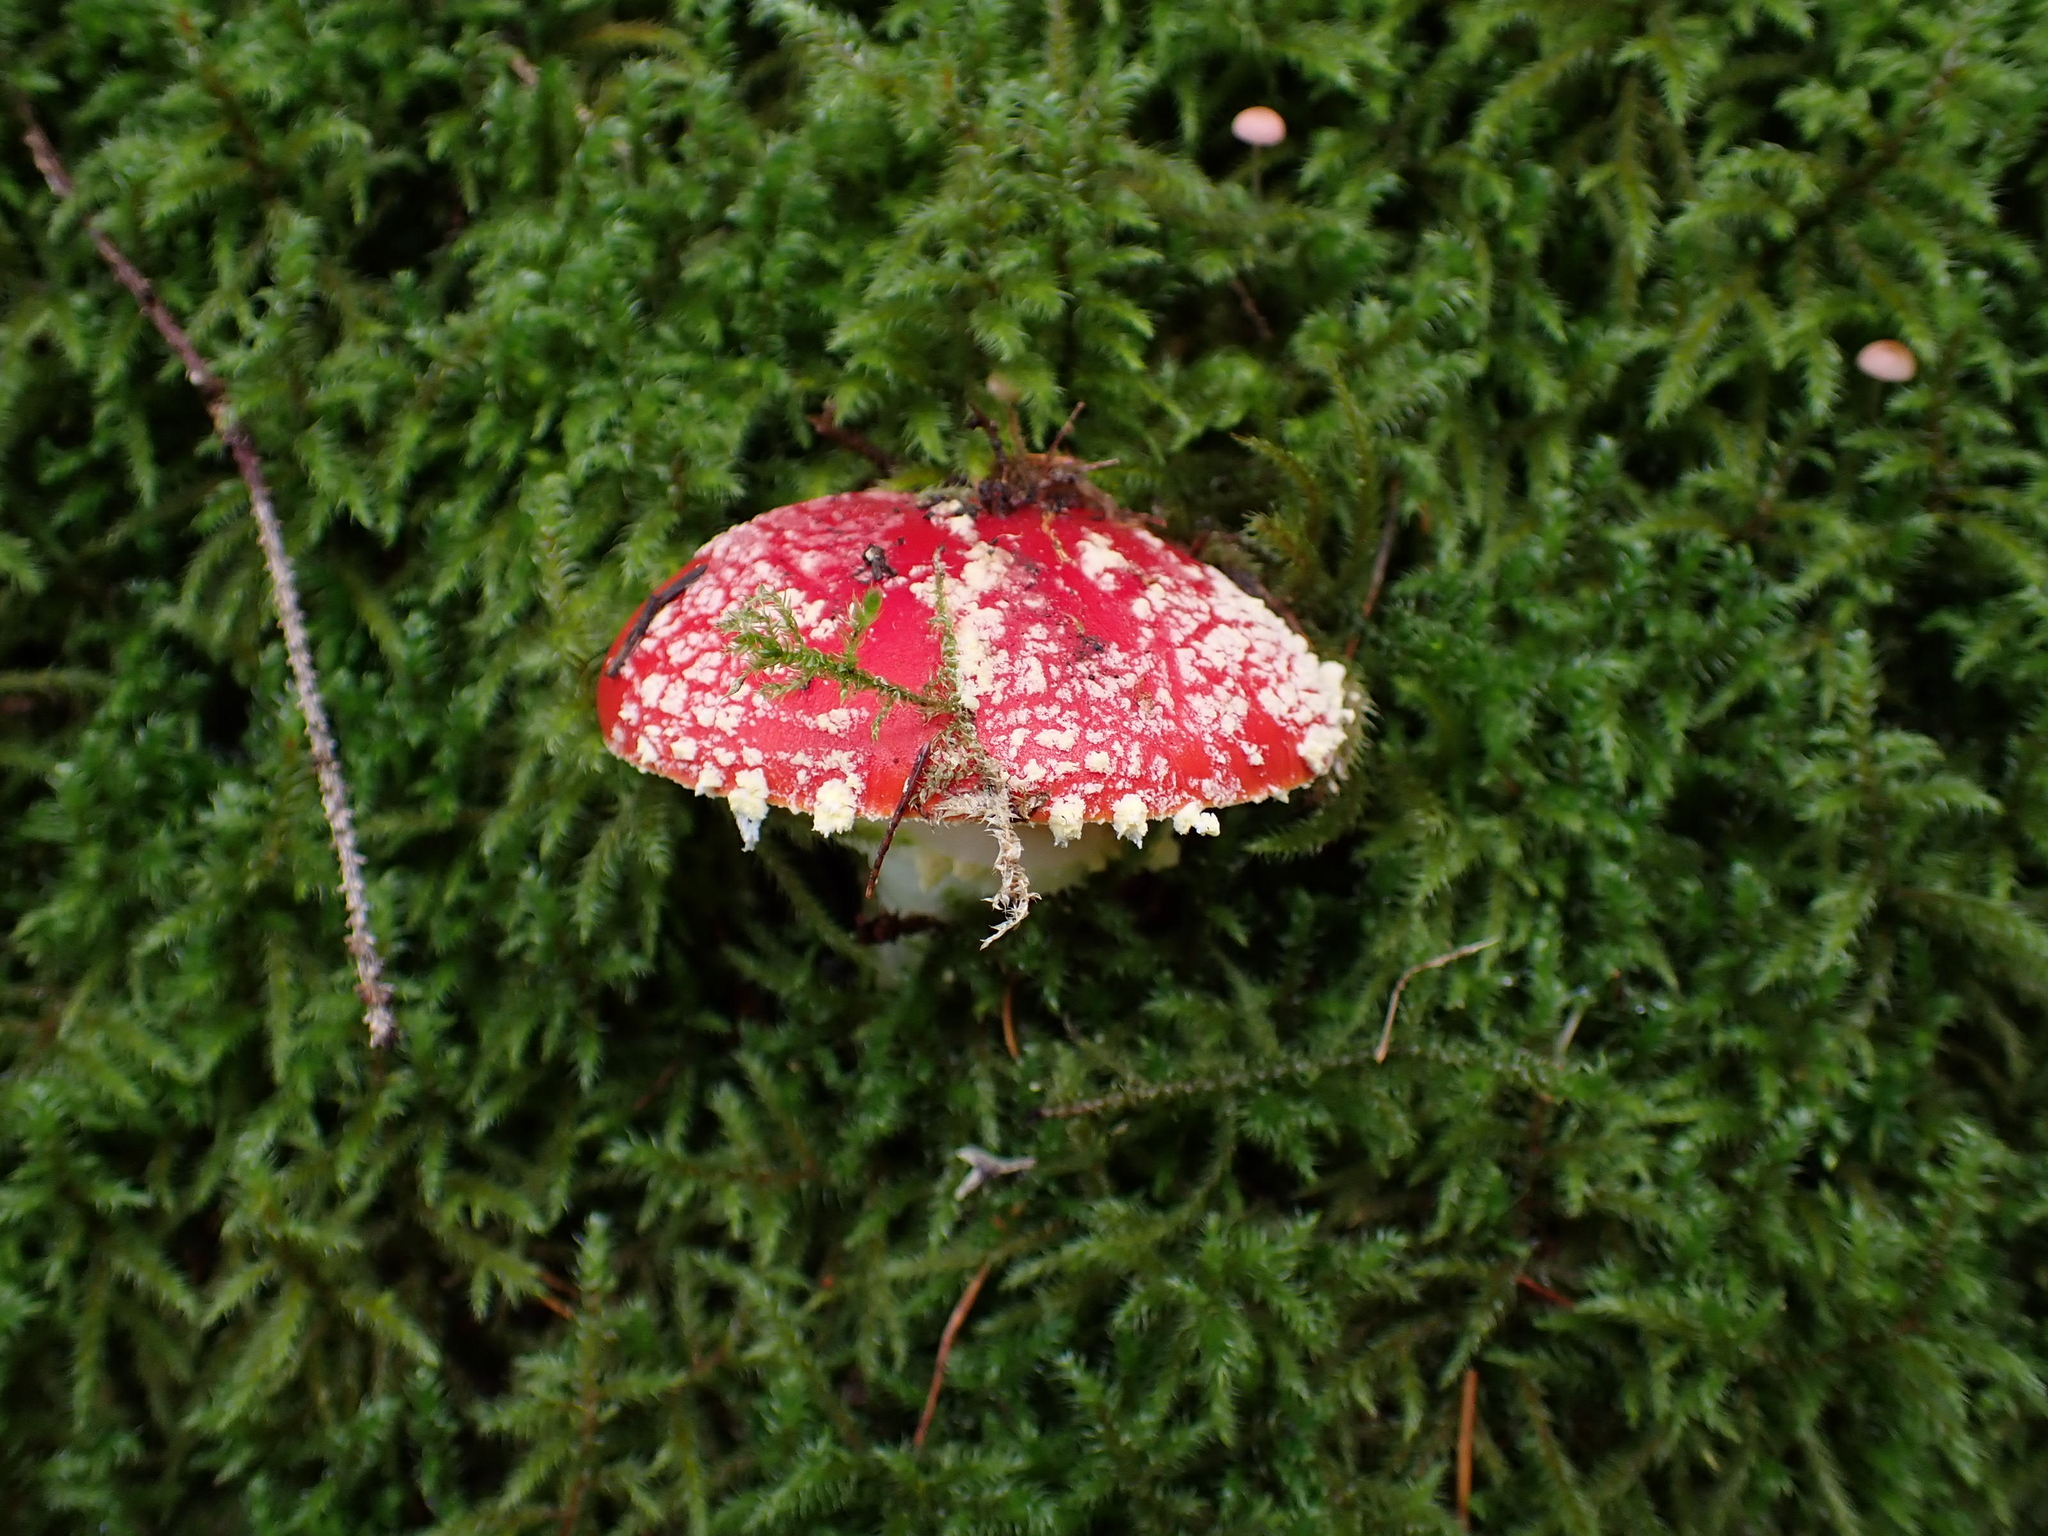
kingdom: Fungi
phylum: Basidiomycota
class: Agaricomycetes
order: Agaricales
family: Amanitaceae
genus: Amanita
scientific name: Amanita muscaria
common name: Fly agaric
